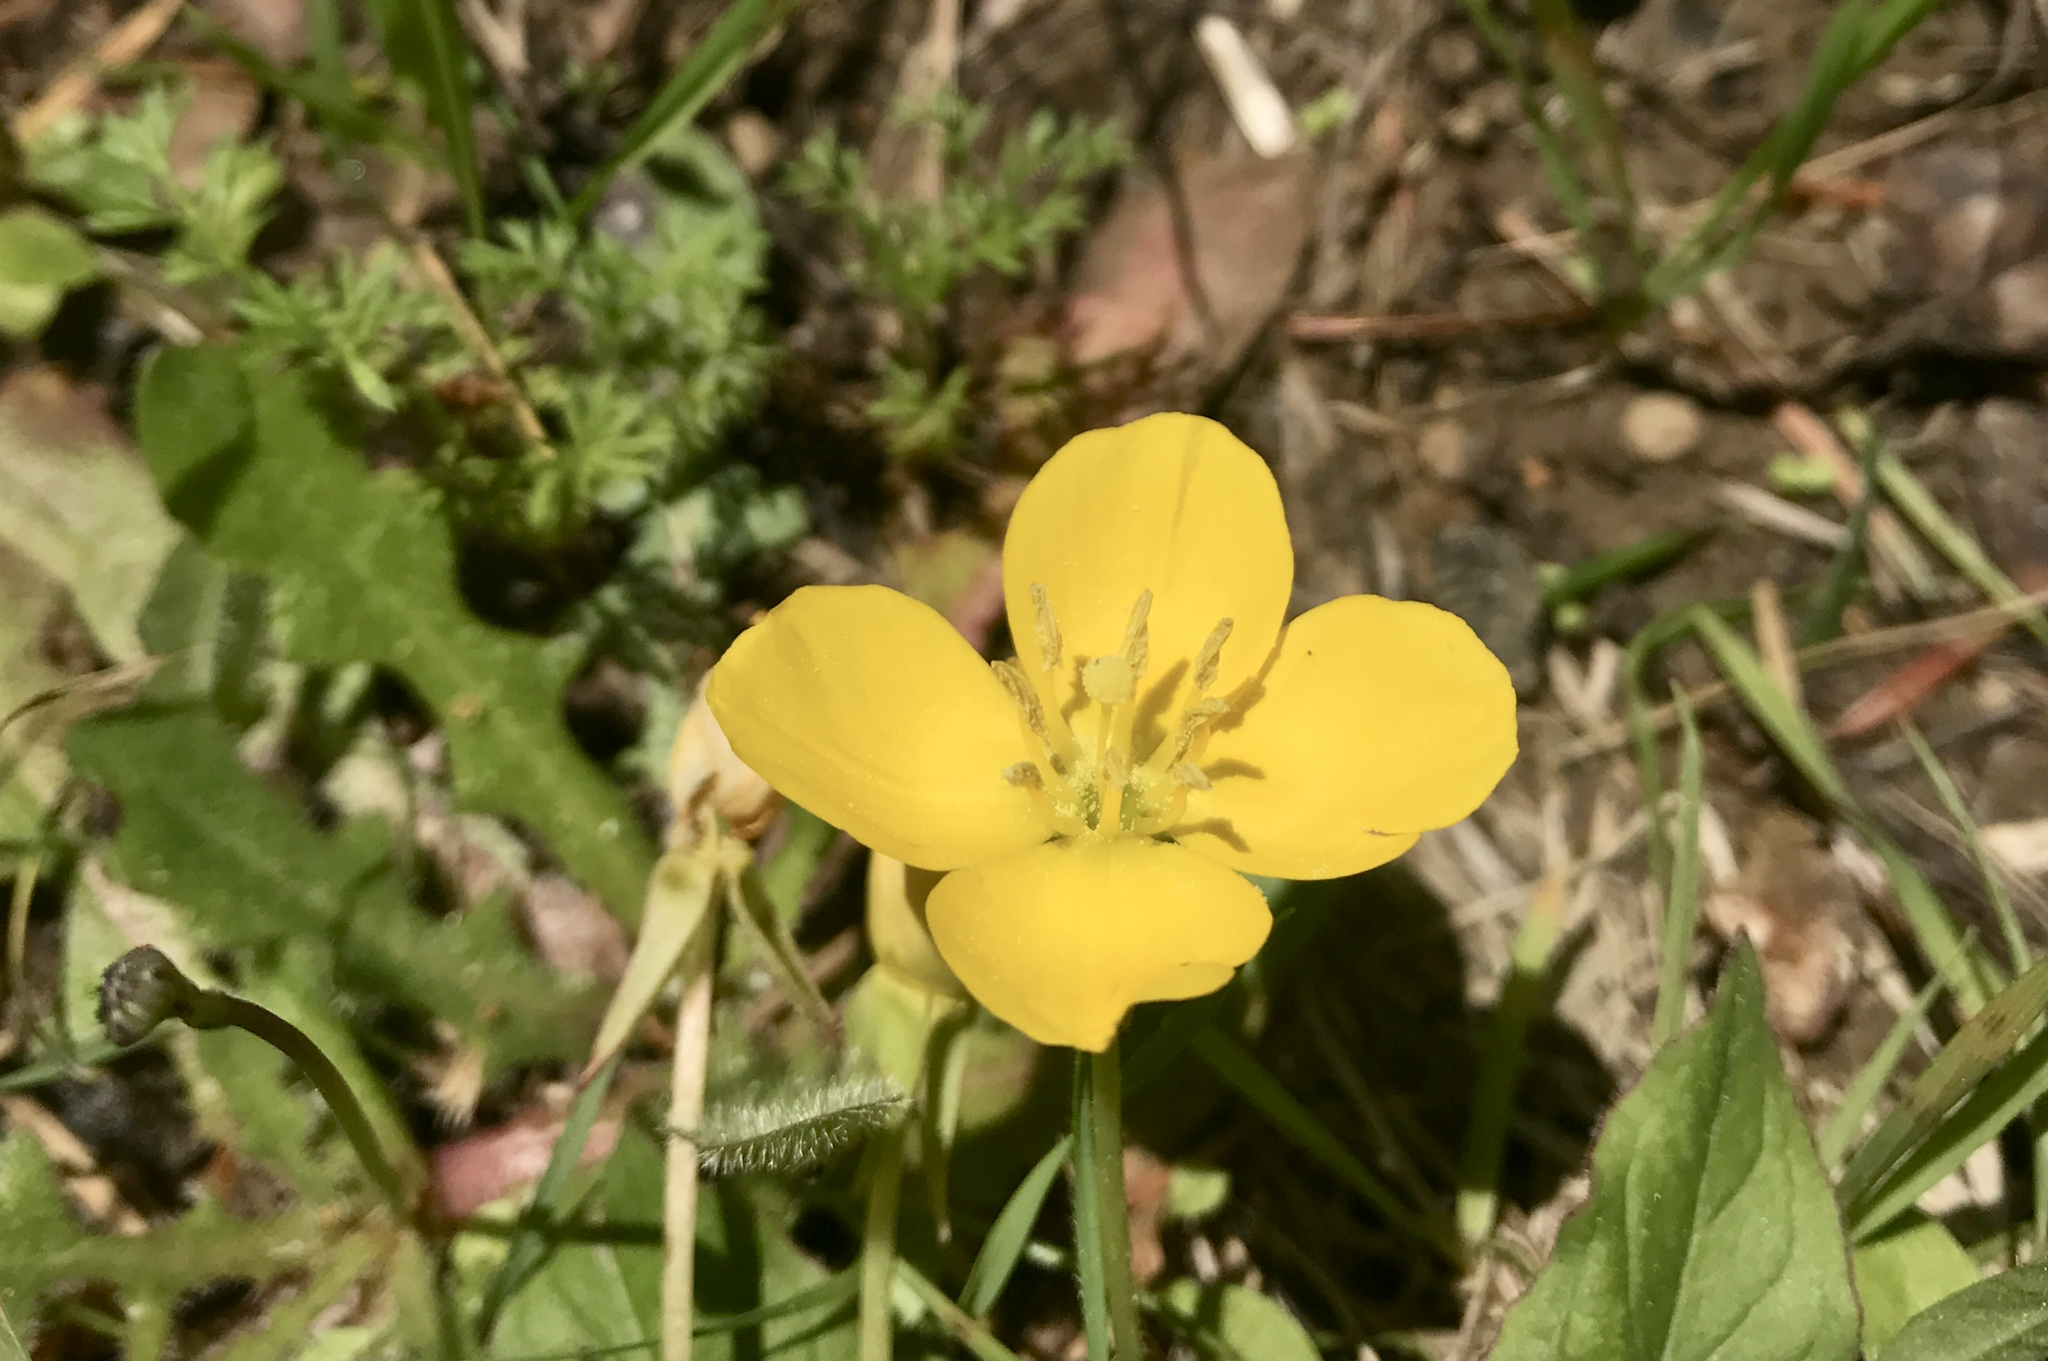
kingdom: Plantae
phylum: Tracheophyta
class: Magnoliopsida
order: Myrtales
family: Onagraceae
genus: Taraxia
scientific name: Taraxia ovata
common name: Goldeneggs
